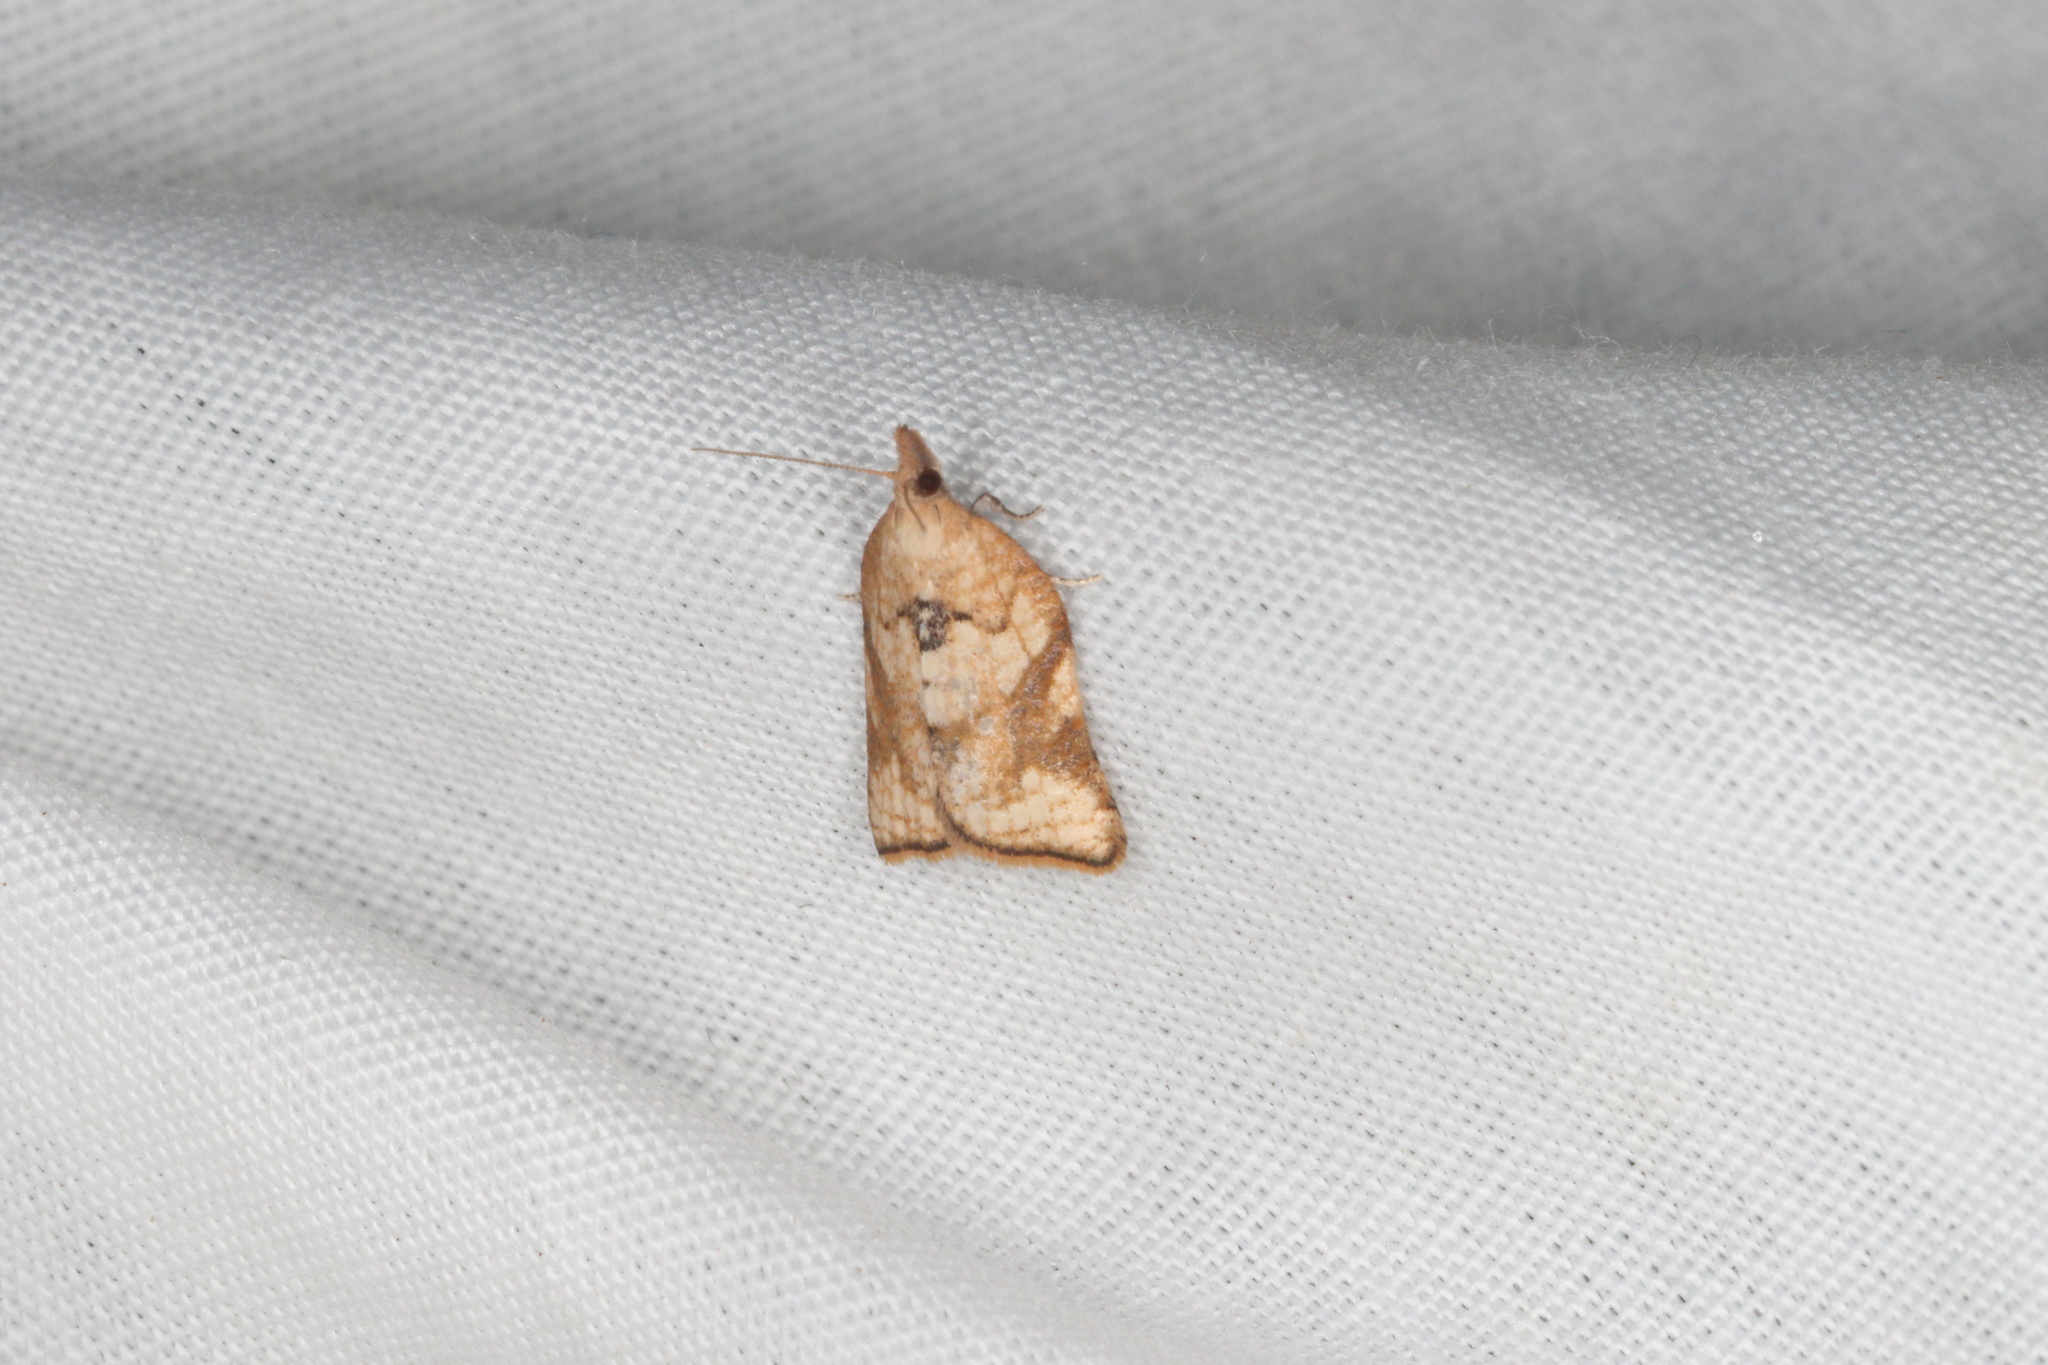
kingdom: Animalia
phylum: Arthropoda
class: Insecta
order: Lepidoptera
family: Tortricidae
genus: Catamacta
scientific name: Catamacta gavisana
